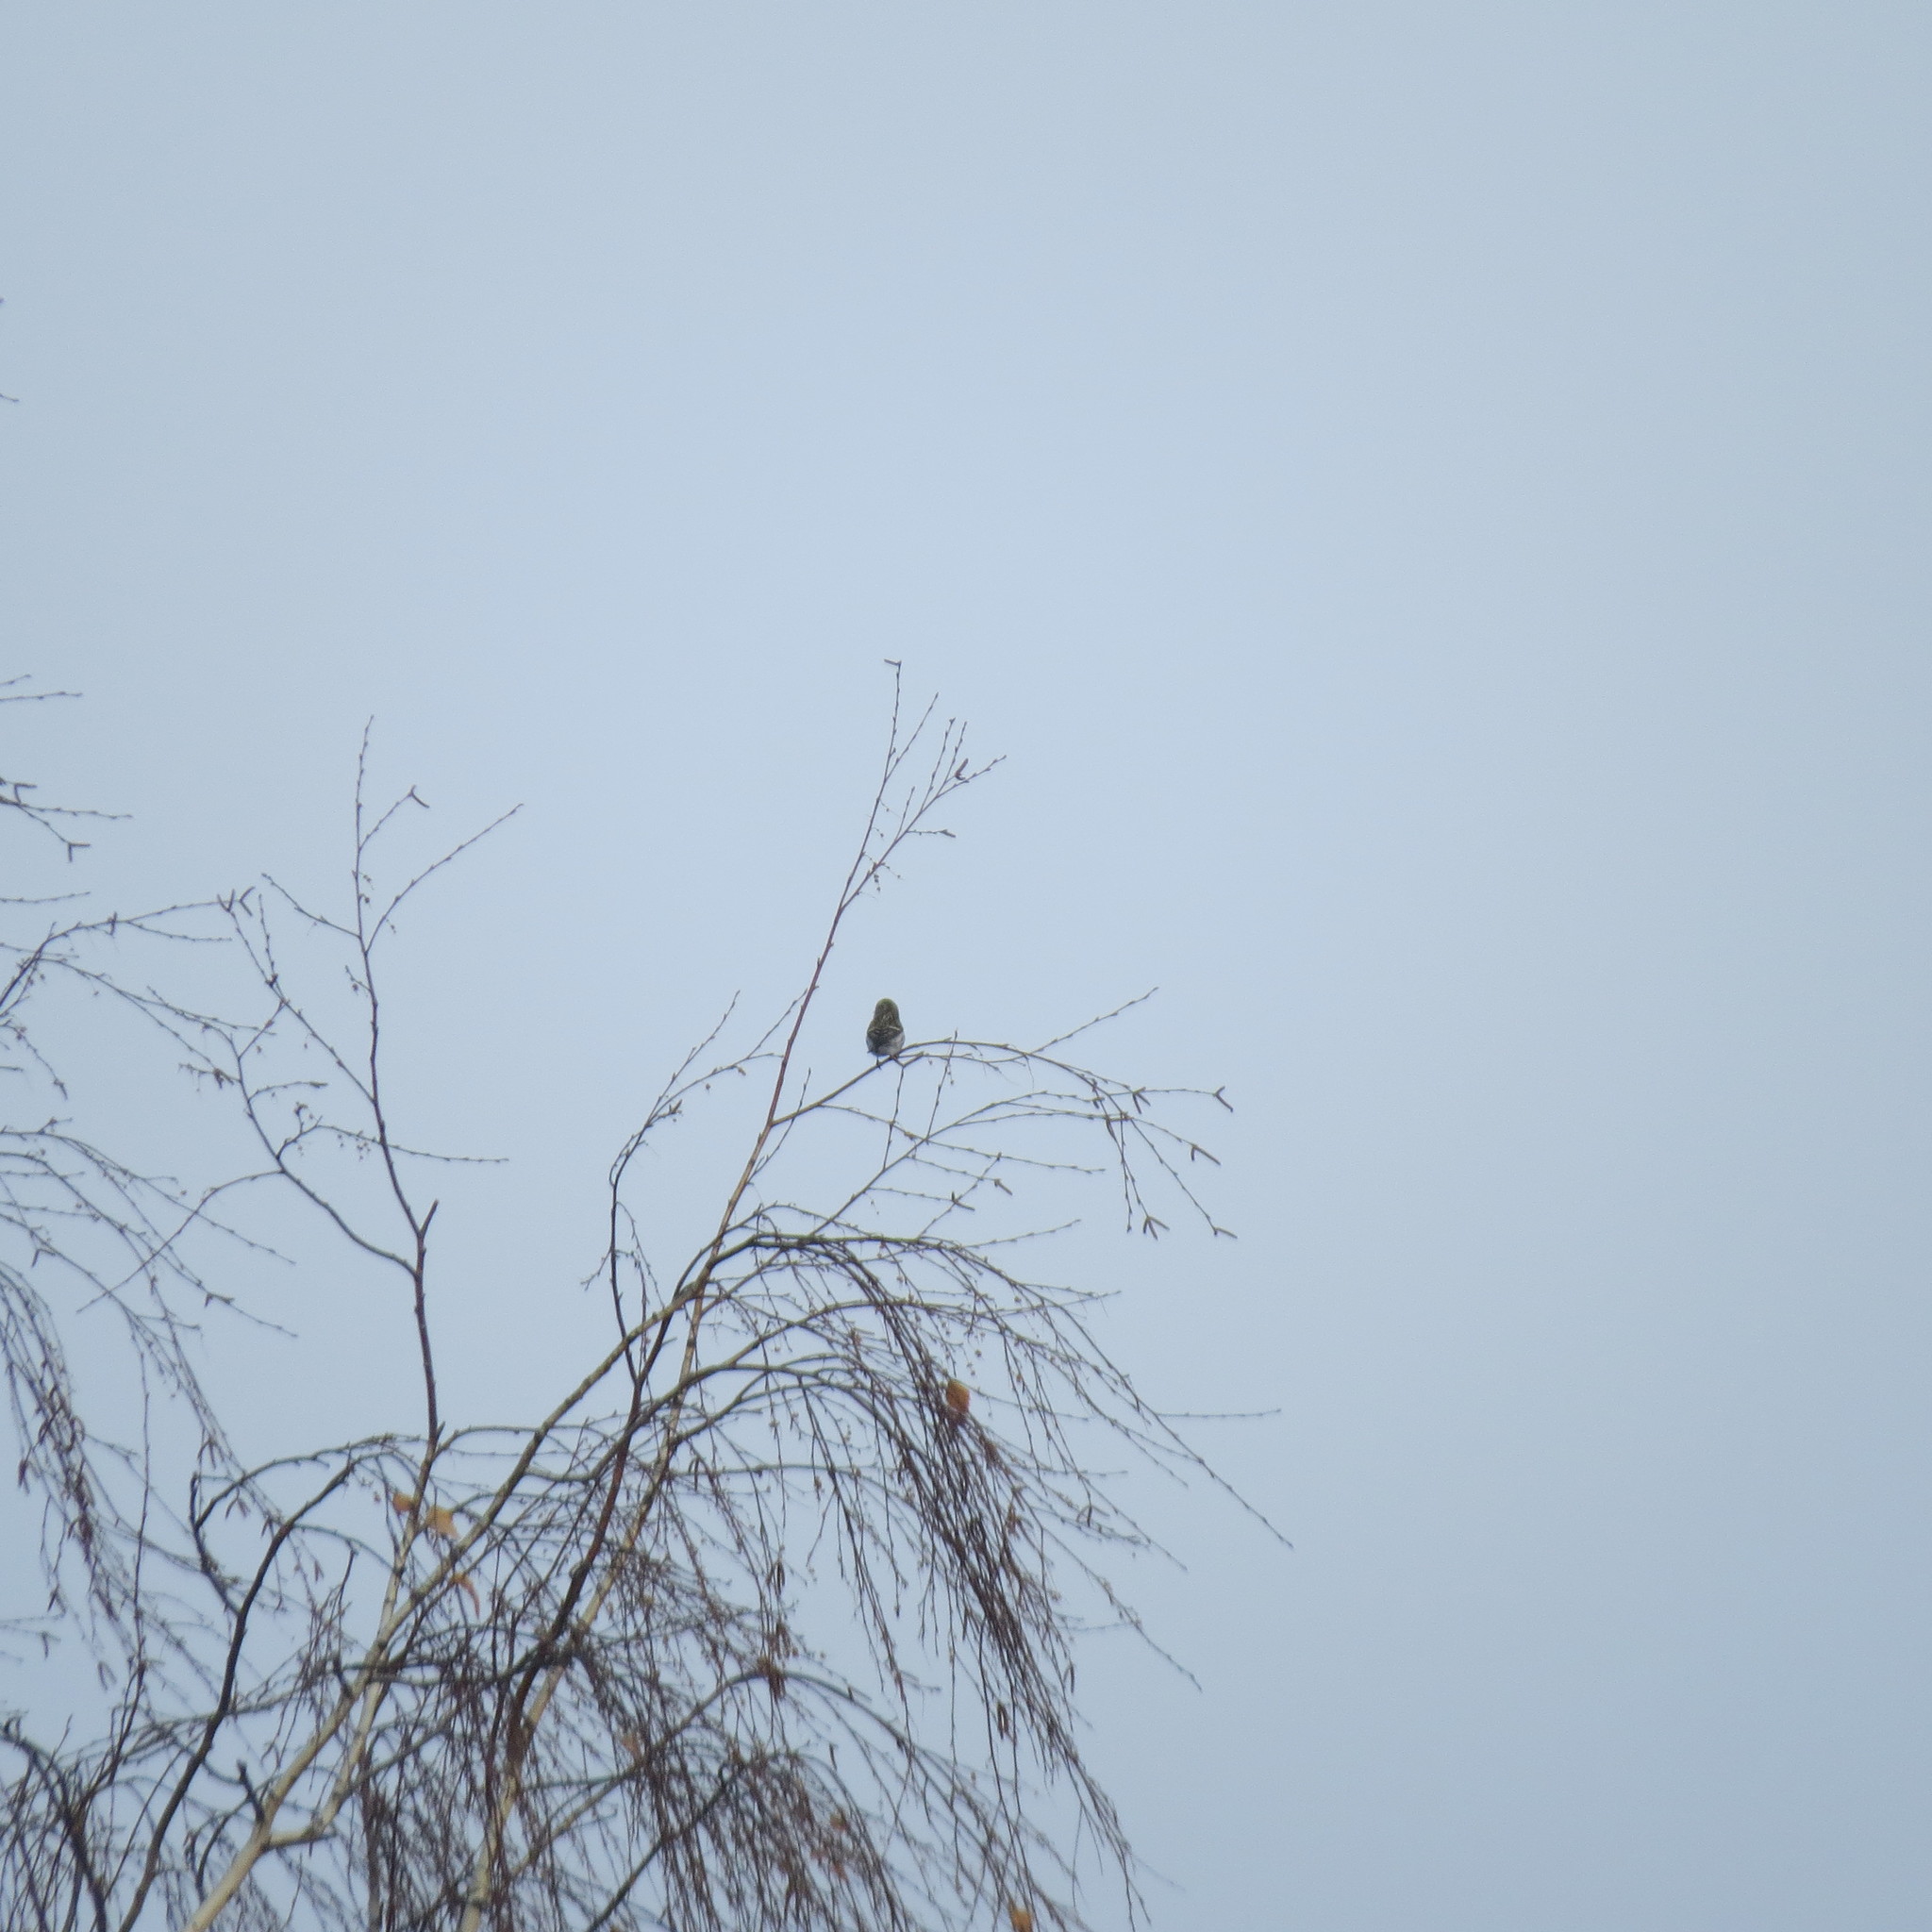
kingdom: Animalia
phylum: Chordata
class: Aves
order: Passeriformes
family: Fringillidae
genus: Acanthis
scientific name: Acanthis flammea
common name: Common redpoll
